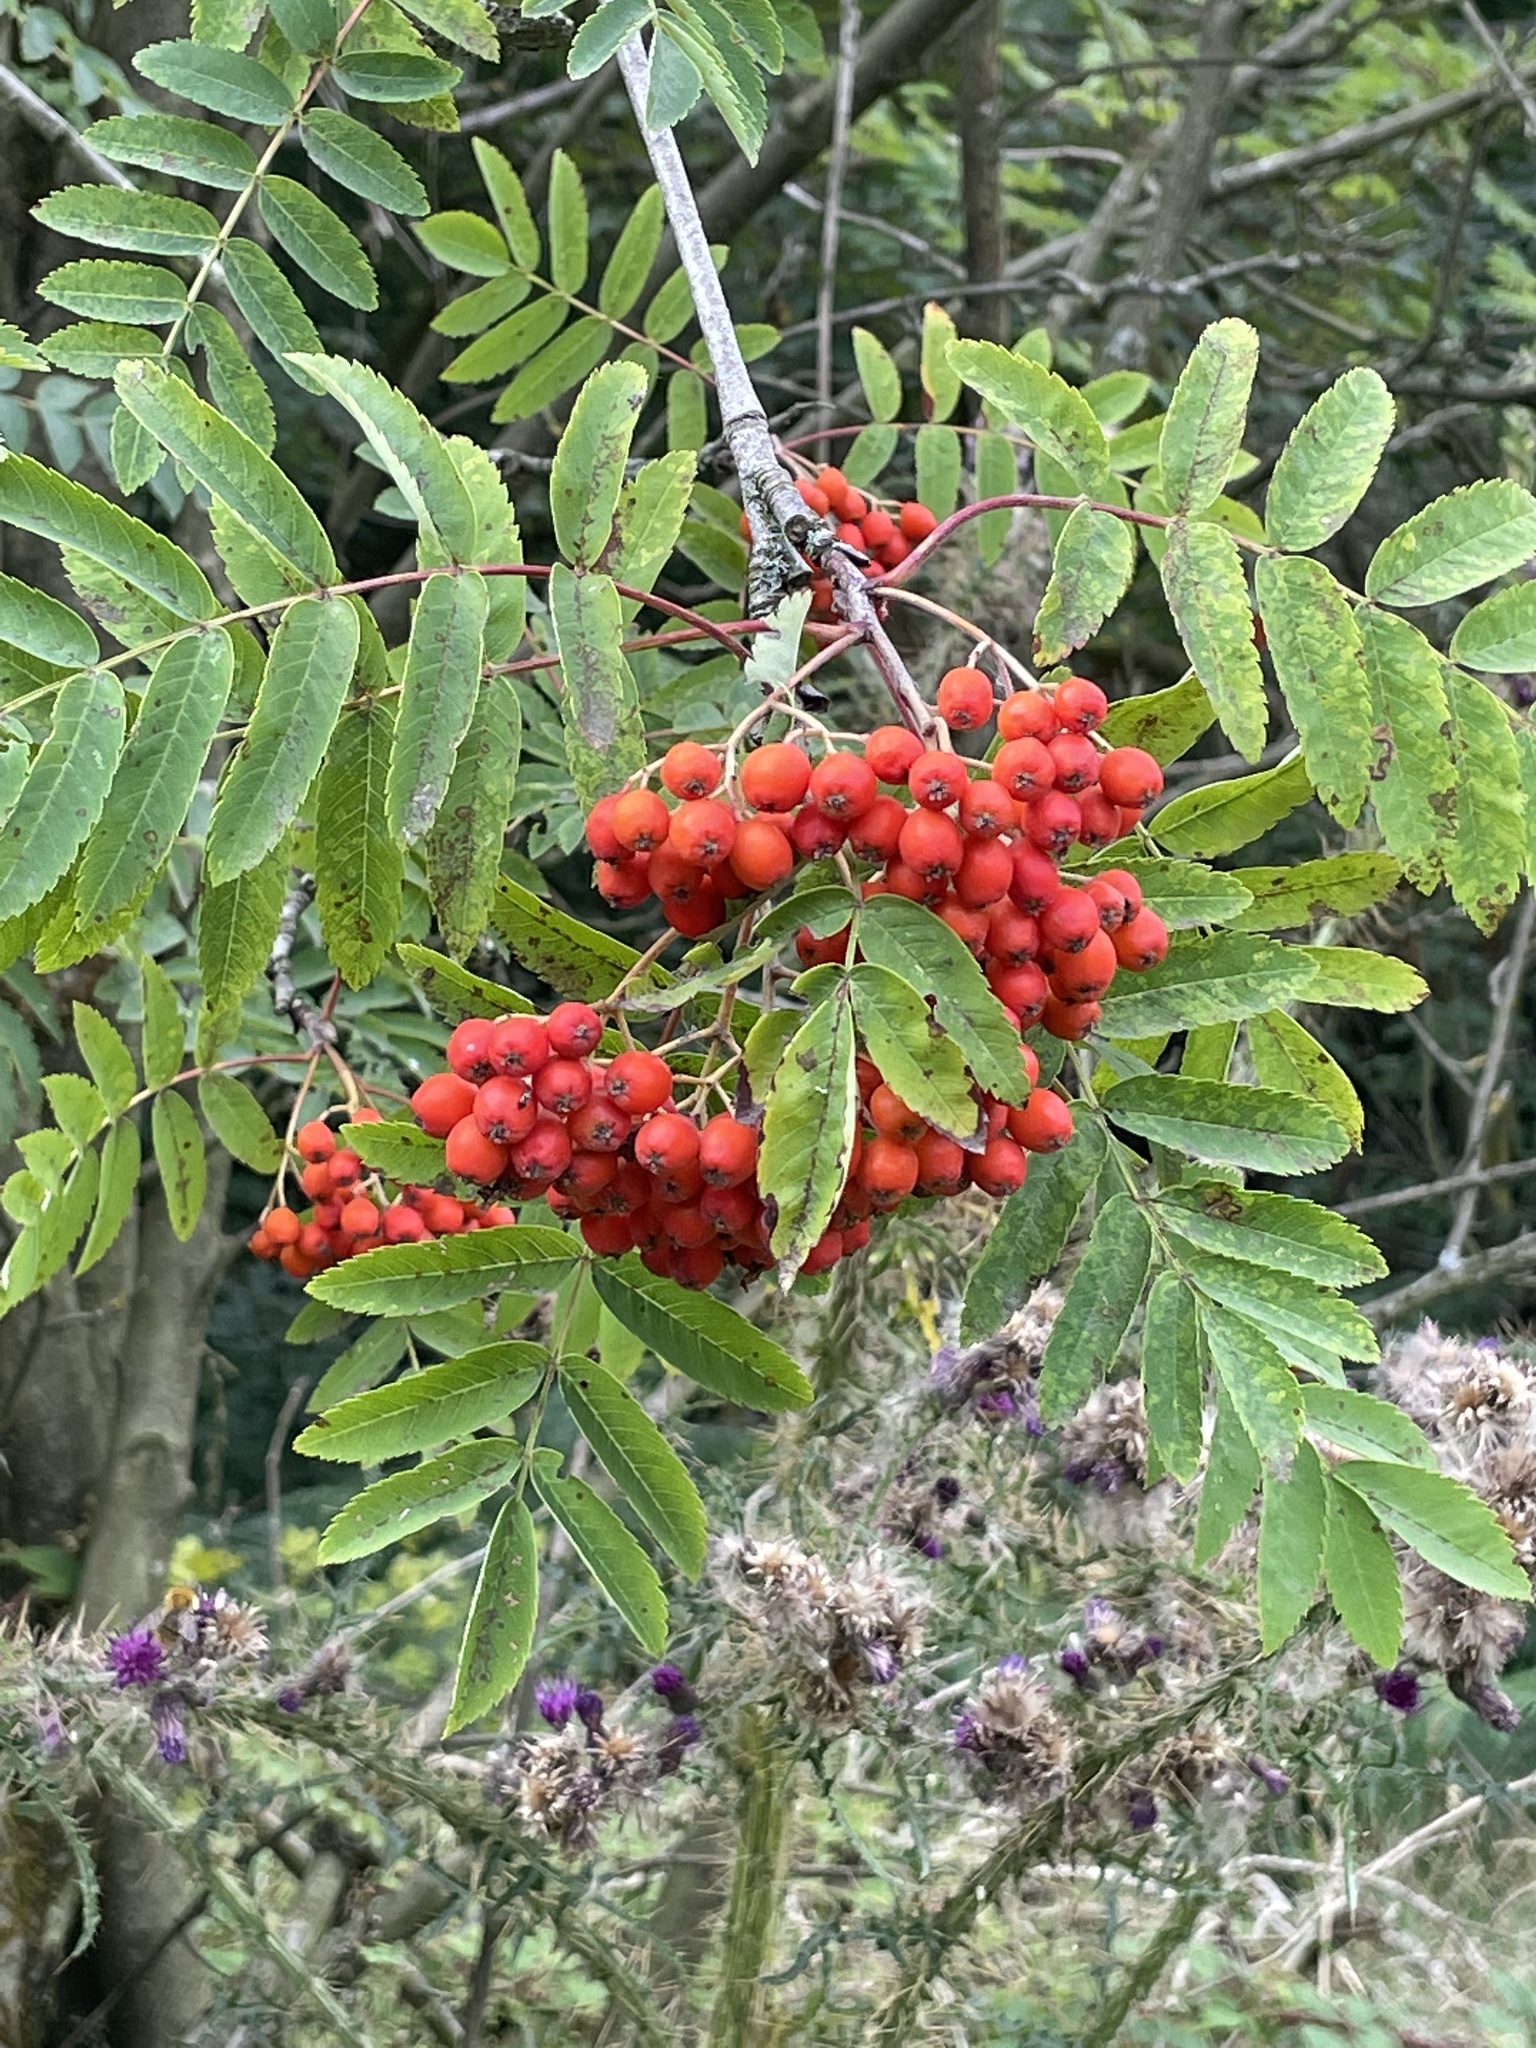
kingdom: Plantae
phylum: Tracheophyta
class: Magnoliopsida
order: Rosales
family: Rosaceae
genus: Sorbus
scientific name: Sorbus aucuparia
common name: Rowan
